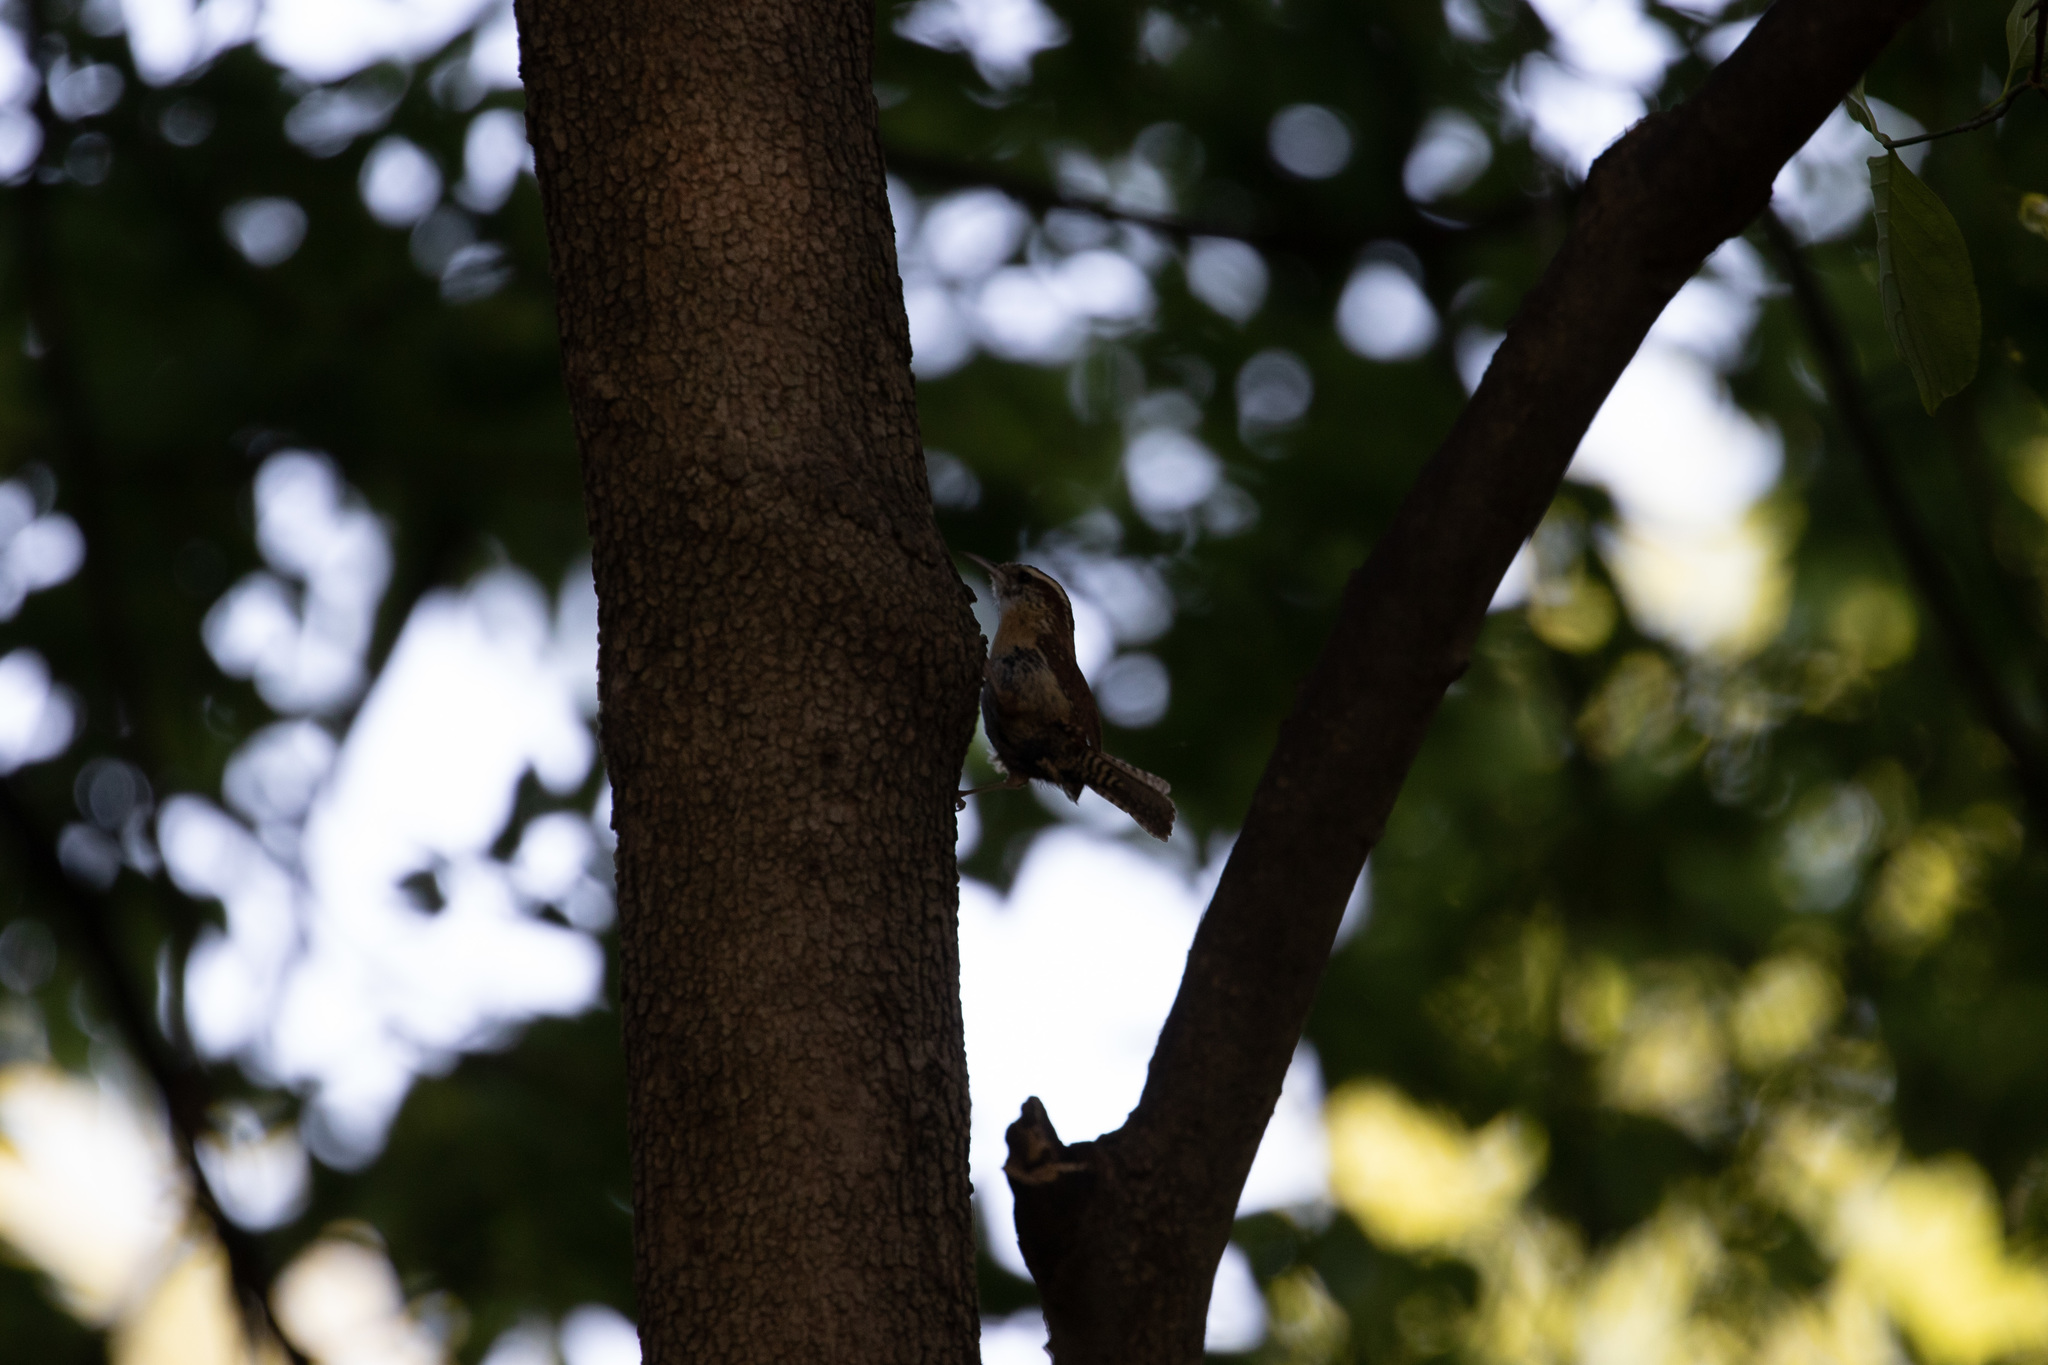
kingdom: Animalia
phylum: Chordata
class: Aves
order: Passeriformes
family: Troglodytidae
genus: Thryothorus
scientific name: Thryothorus ludovicianus
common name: Carolina wren
